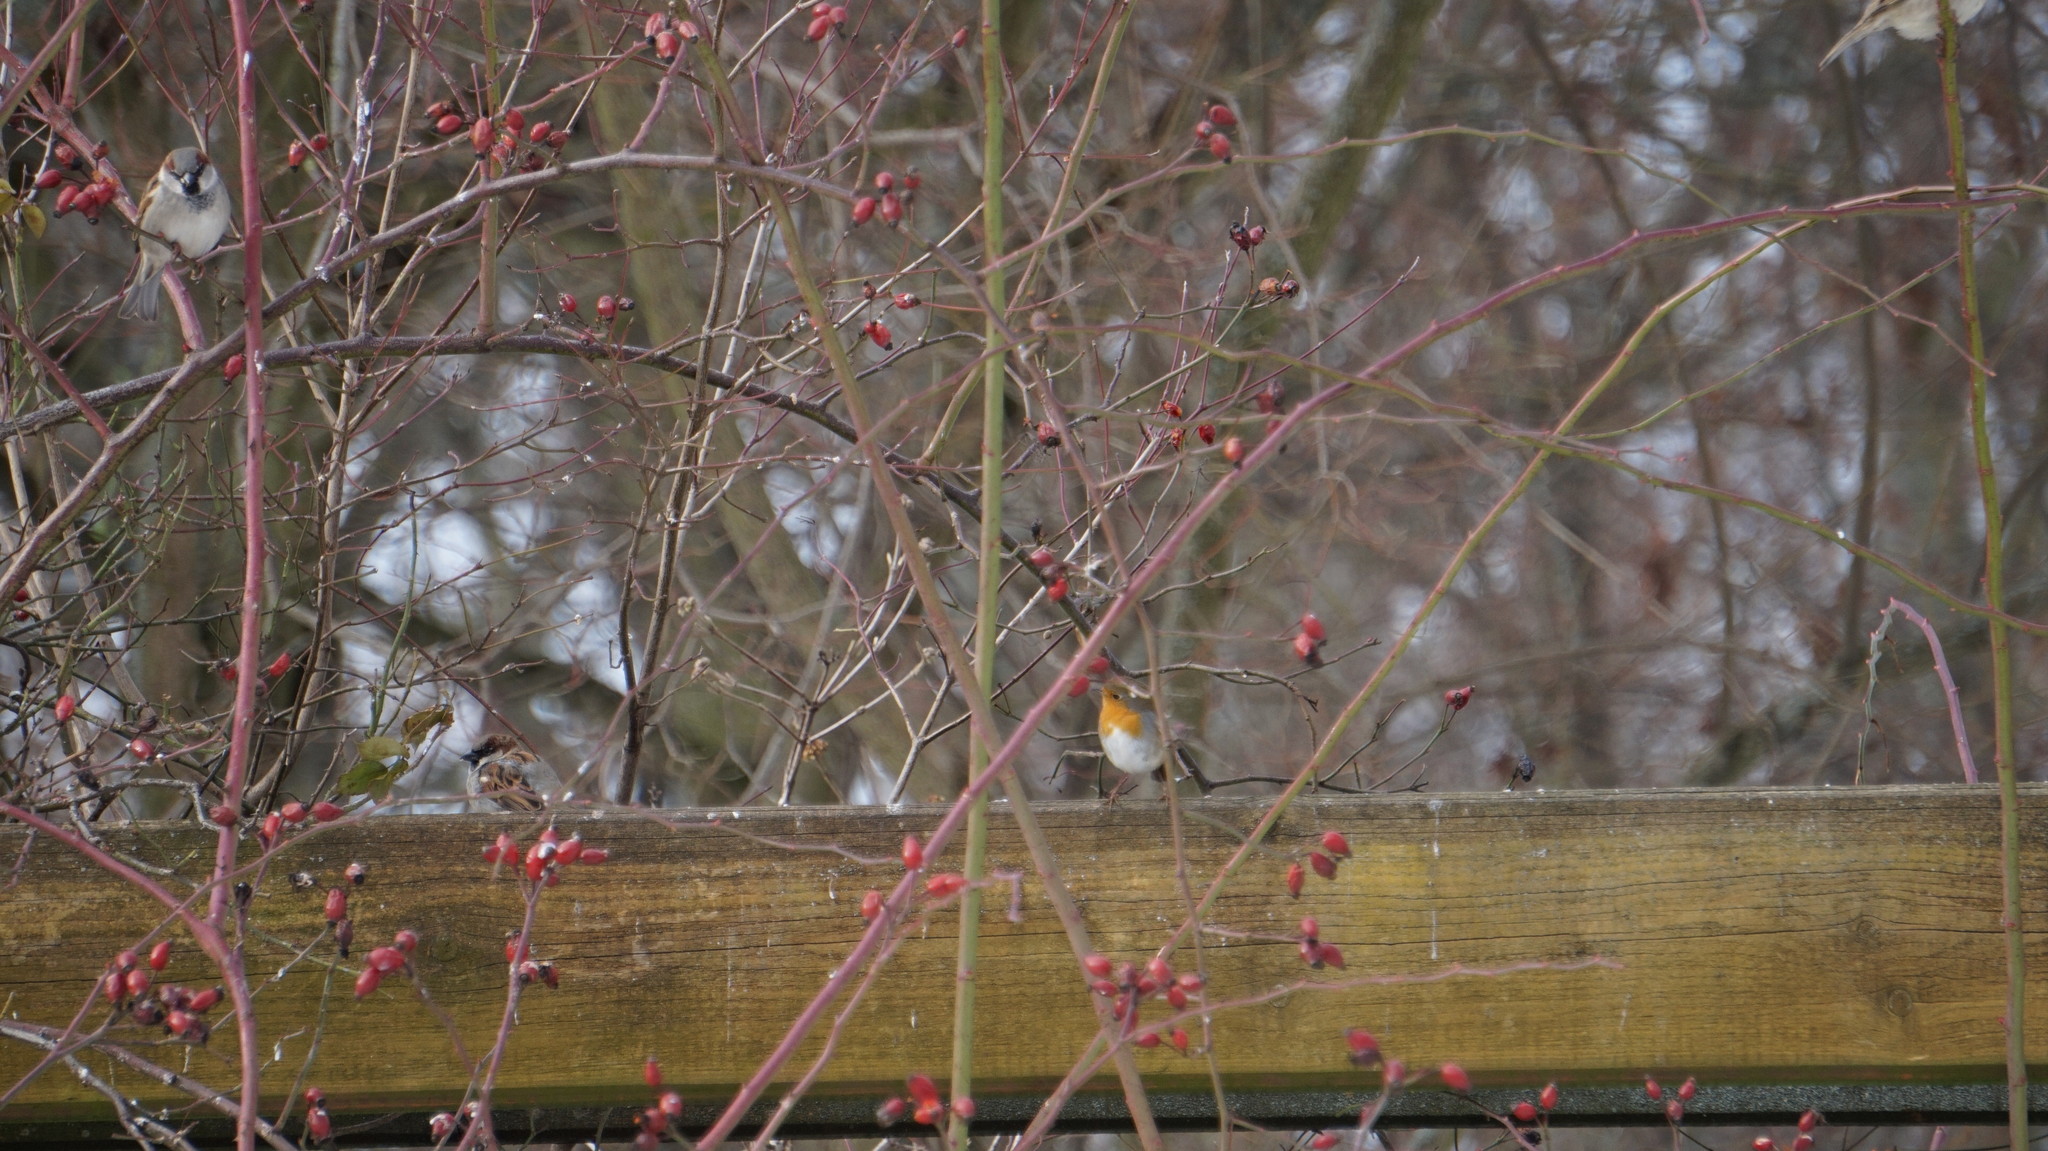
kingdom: Animalia
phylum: Chordata
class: Aves
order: Passeriformes
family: Muscicapidae
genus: Erithacus
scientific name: Erithacus rubecula
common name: European robin
